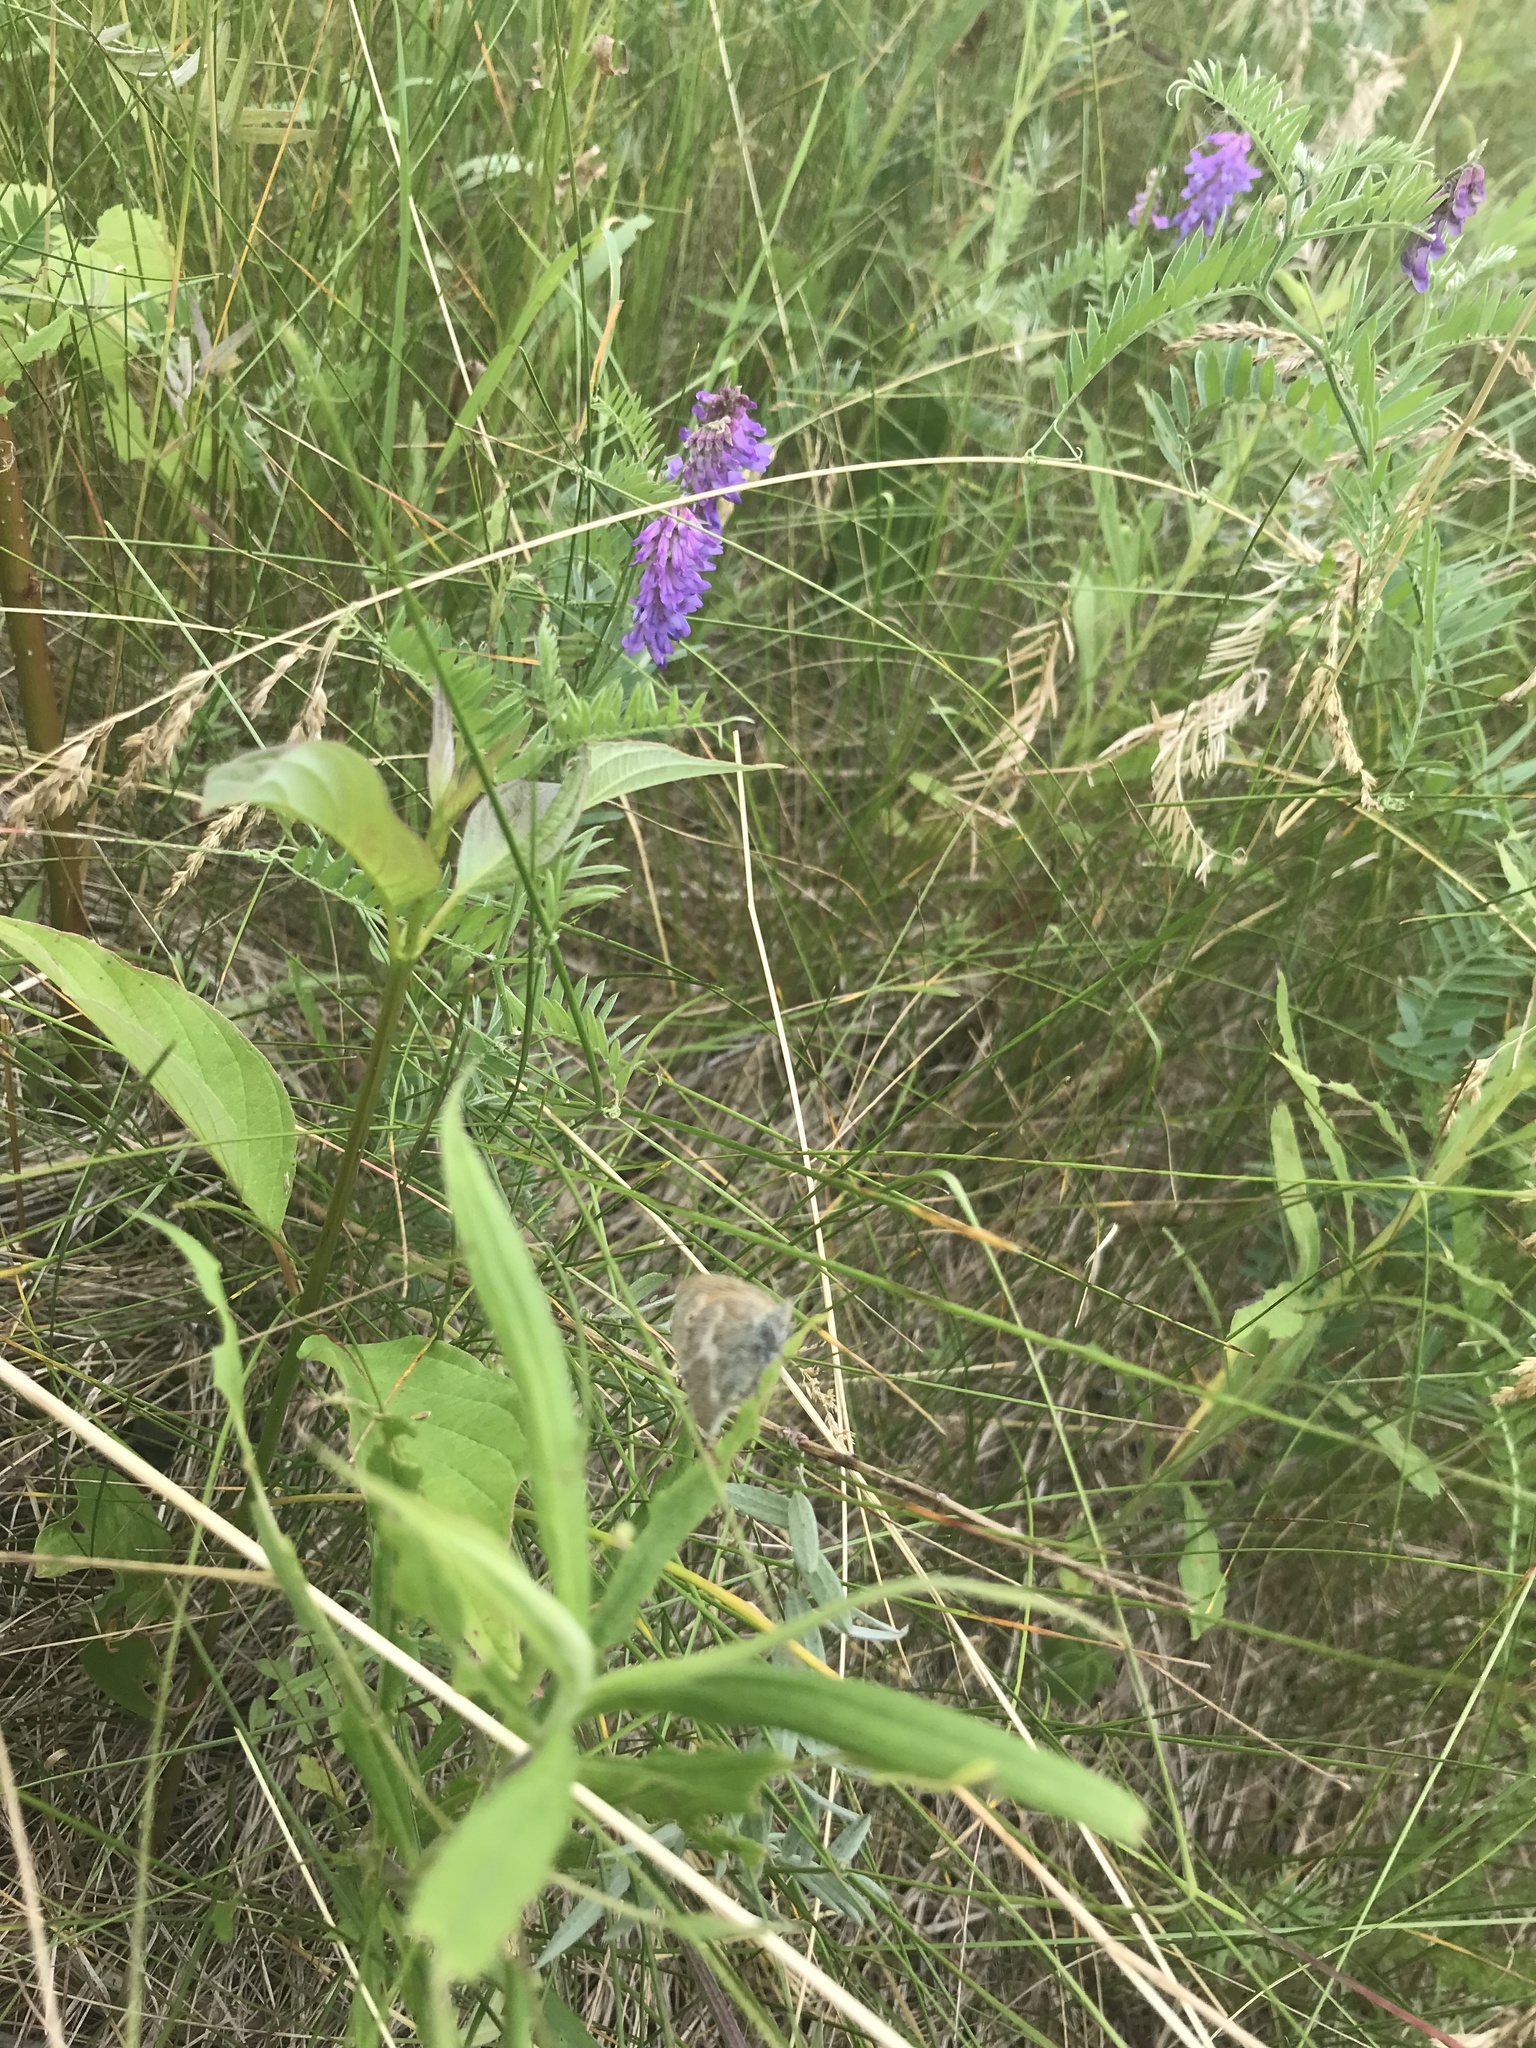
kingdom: Animalia
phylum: Arthropoda
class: Insecta
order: Lepidoptera
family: Nymphalidae
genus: Coenonympha
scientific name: Coenonympha california
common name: Common ringlet
